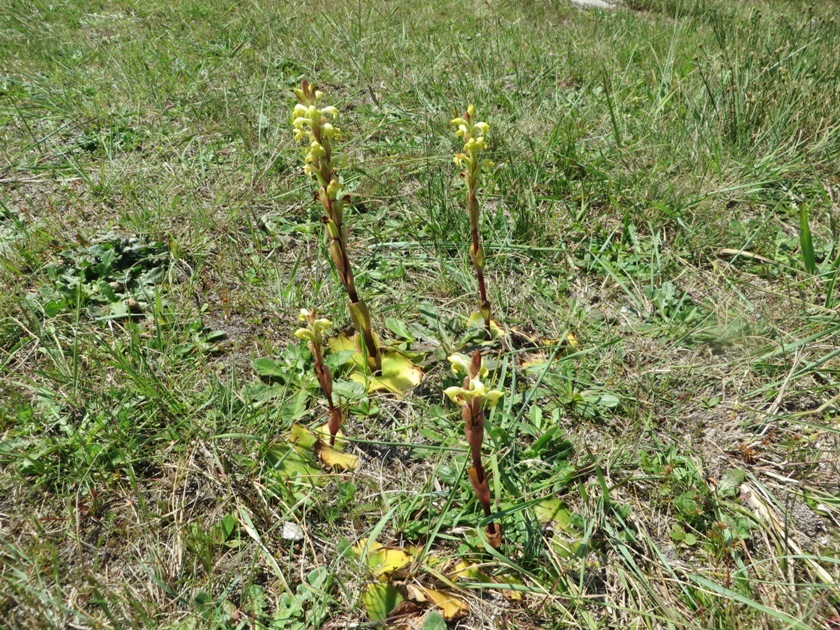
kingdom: Plantae
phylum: Tracheophyta
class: Liliopsida
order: Asparagales
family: Orchidaceae
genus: Satyrium
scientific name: Satyrium bicorne
